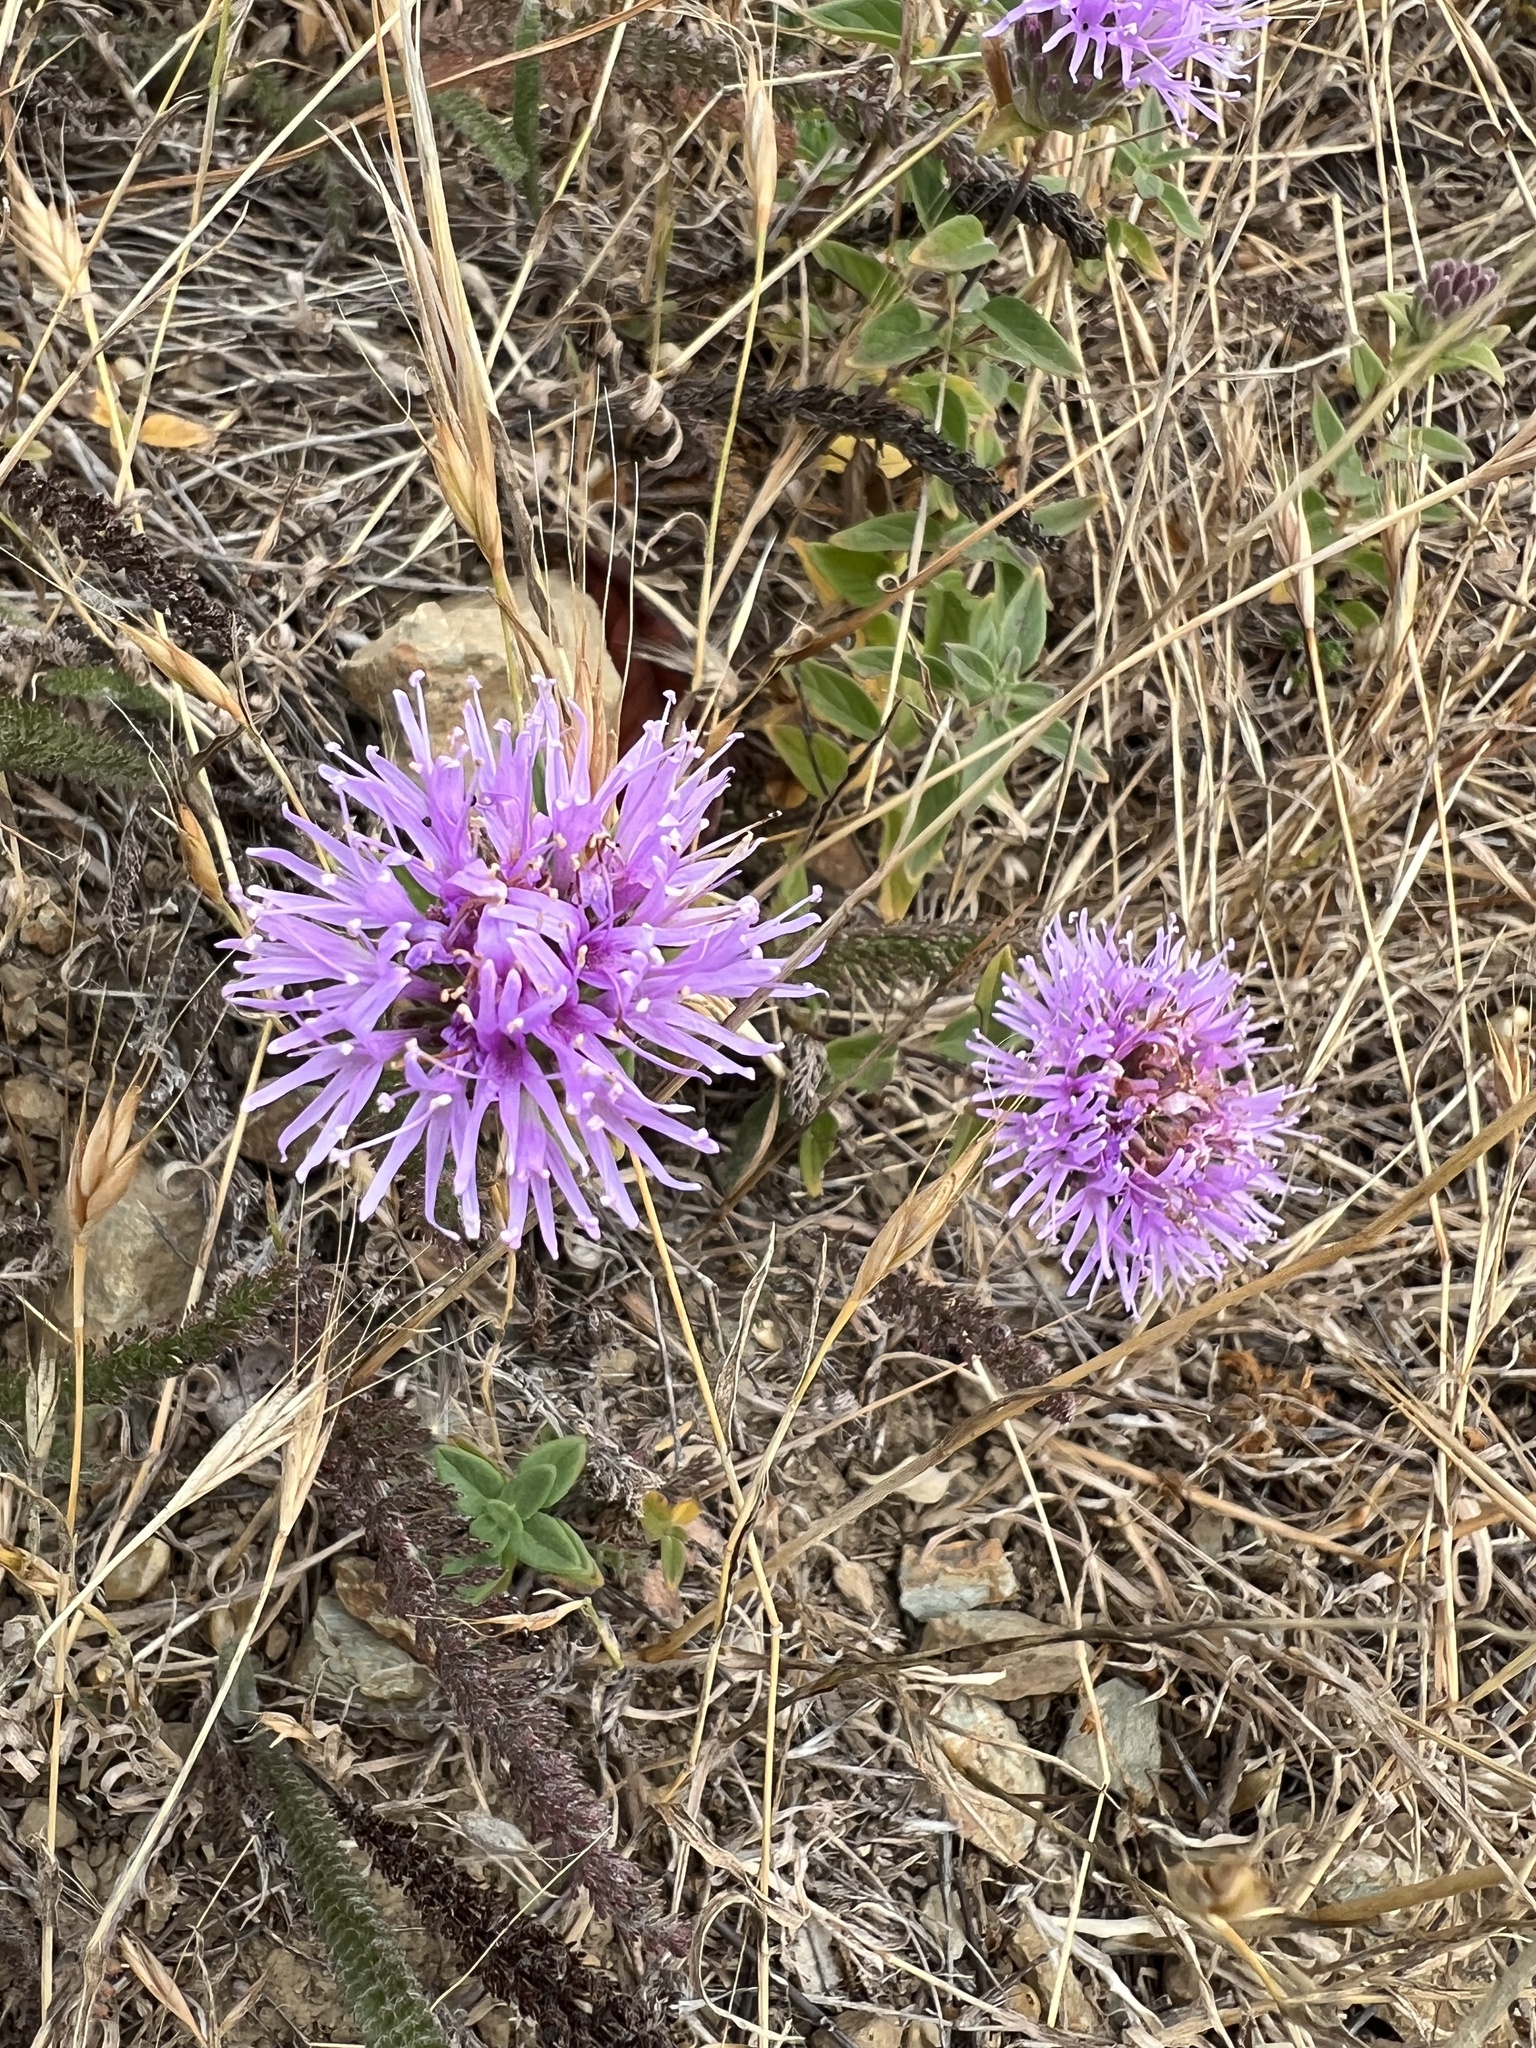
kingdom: Plantae
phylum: Tracheophyta
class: Magnoliopsida
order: Lamiales
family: Lamiaceae
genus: Monardella
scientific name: Monardella odoratissima
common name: Pacific monardella
